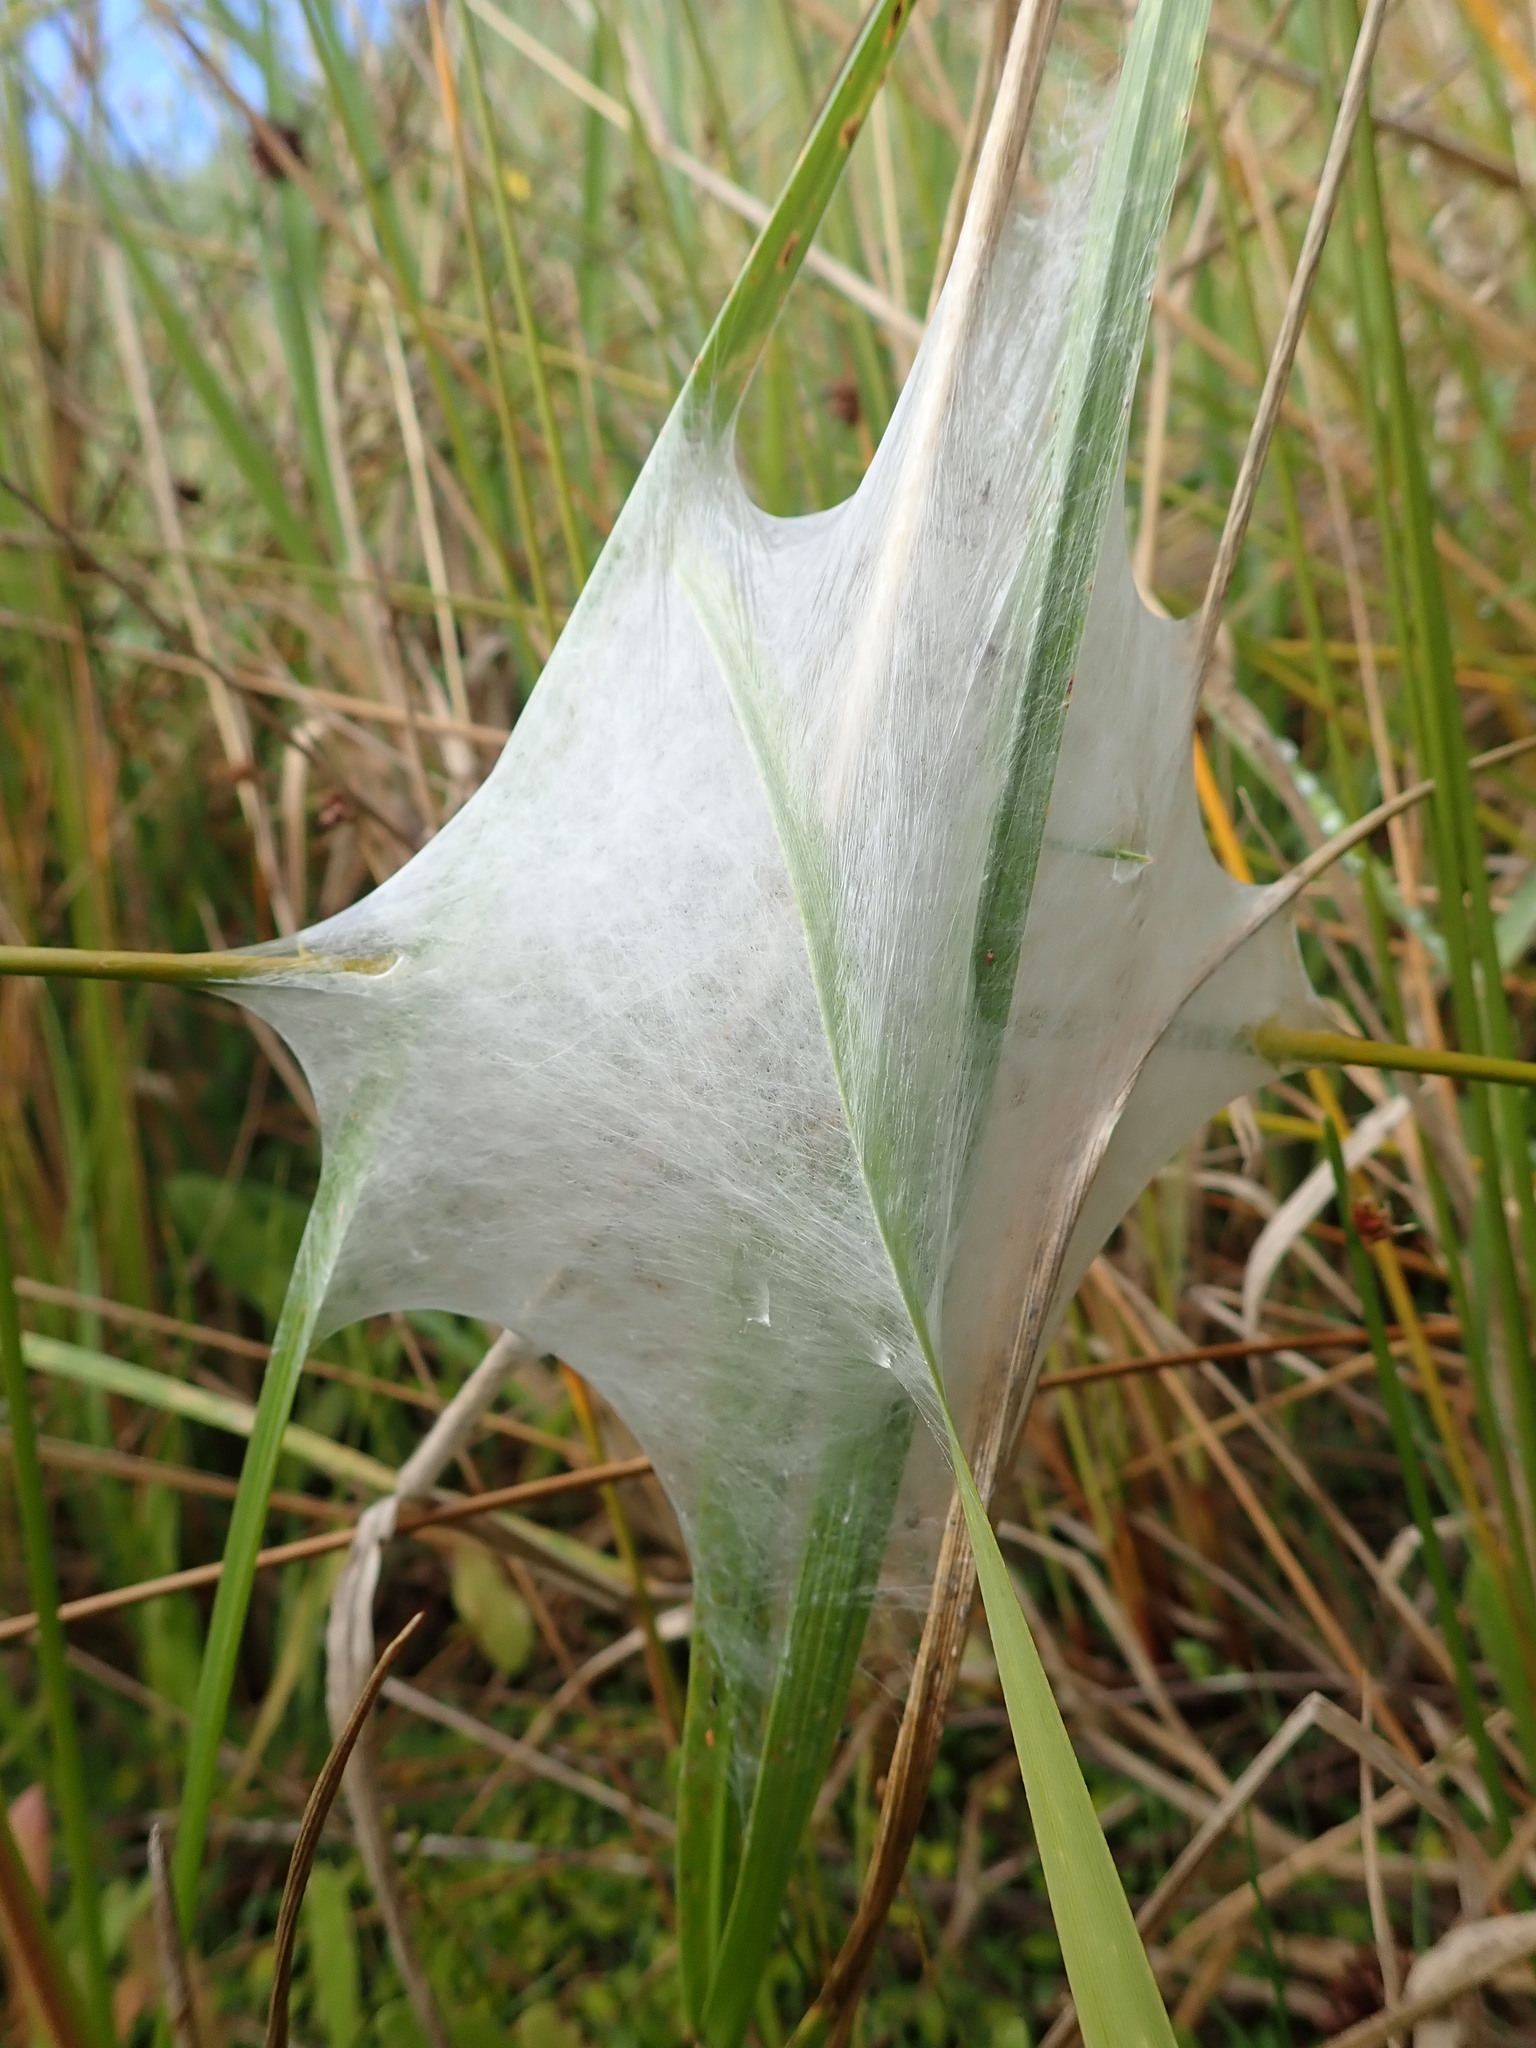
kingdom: Animalia
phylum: Arthropoda
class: Arachnida
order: Araneae
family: Pisauridae
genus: Dolomedes
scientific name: Dolomedes minor
